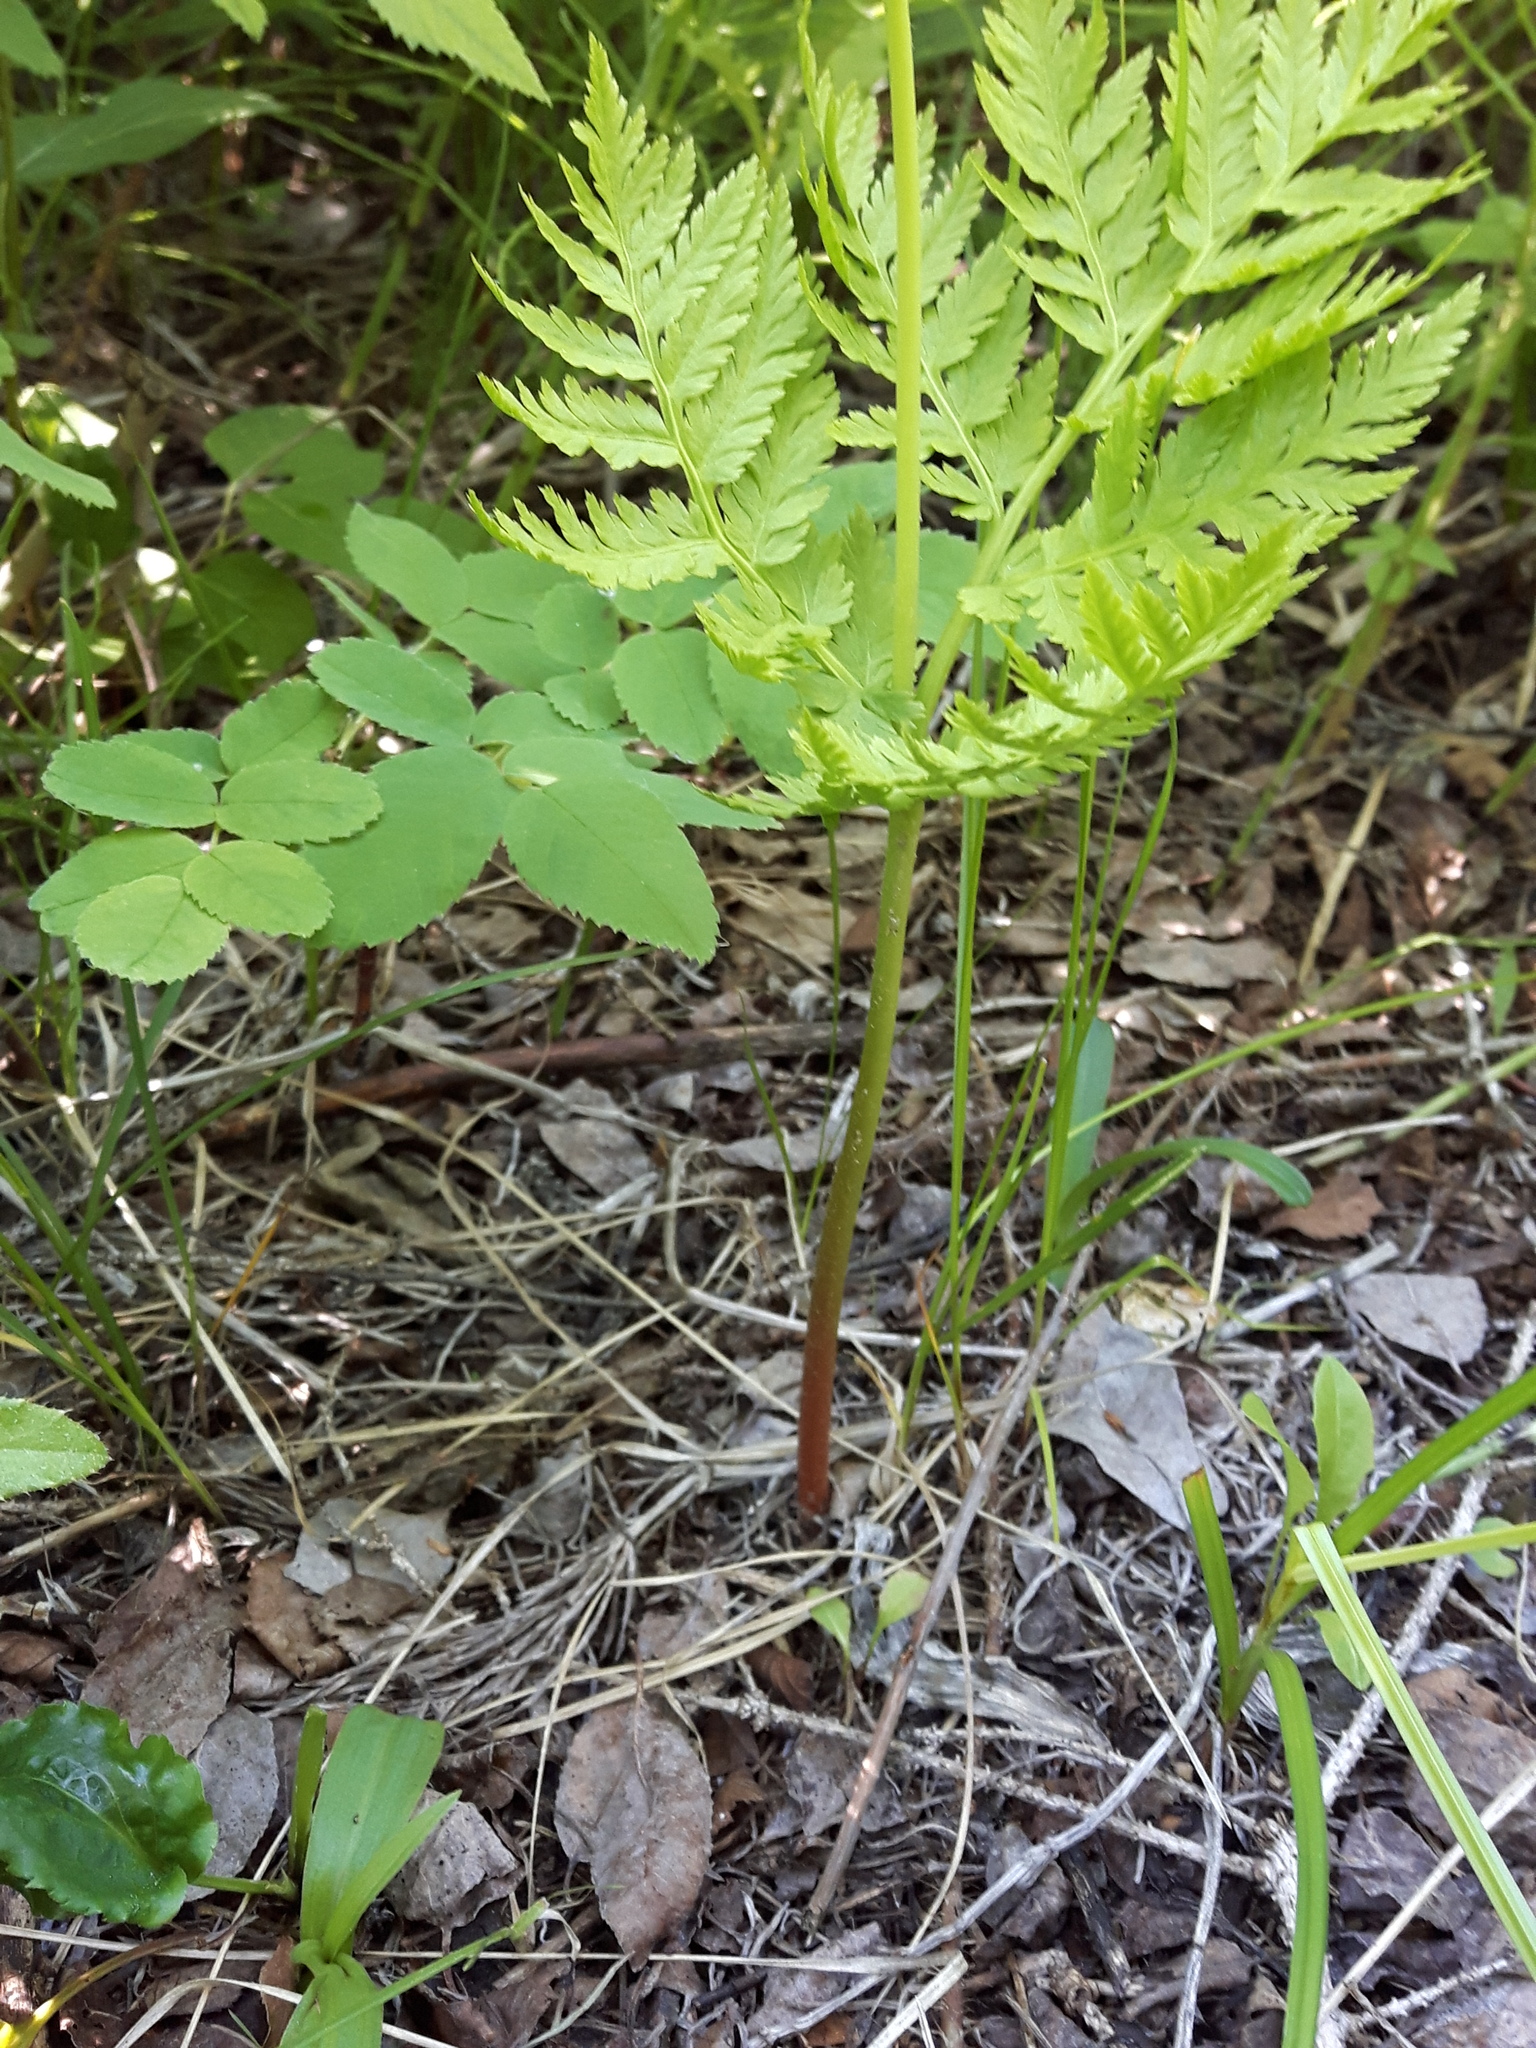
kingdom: Plantae
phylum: Tracheophyta
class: Polypodiopsida
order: Ophioglossales
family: Ophioglossaceae
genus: Botrypus
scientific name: Botrypus virginianus
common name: Common grapefern
